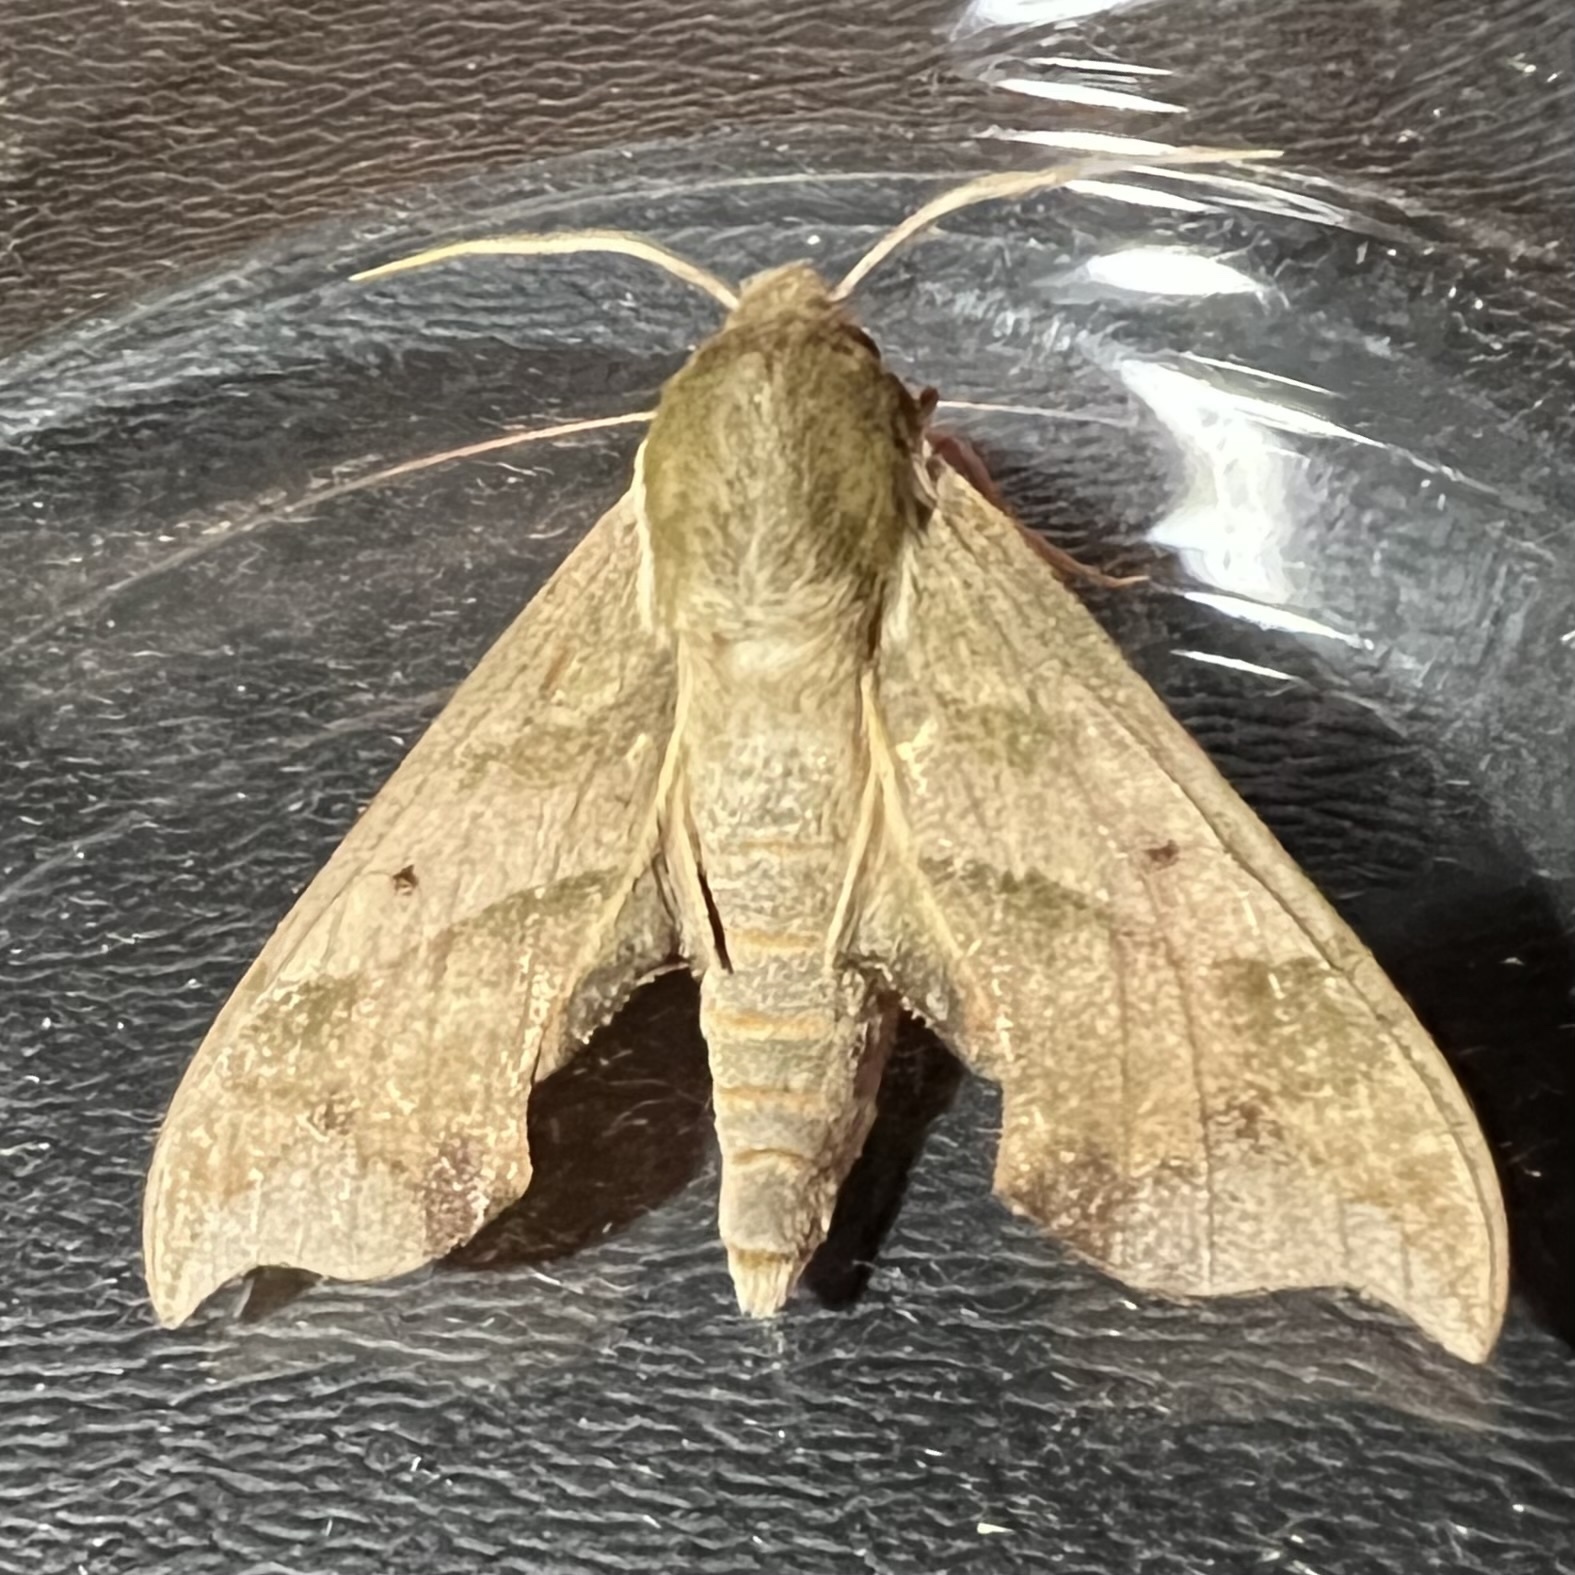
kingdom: Animalia
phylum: Arthropoda
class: Insecta
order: Lepidoptera
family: Sphingidae
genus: Darapsa
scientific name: Darapsa myron
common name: Hog sphinx
